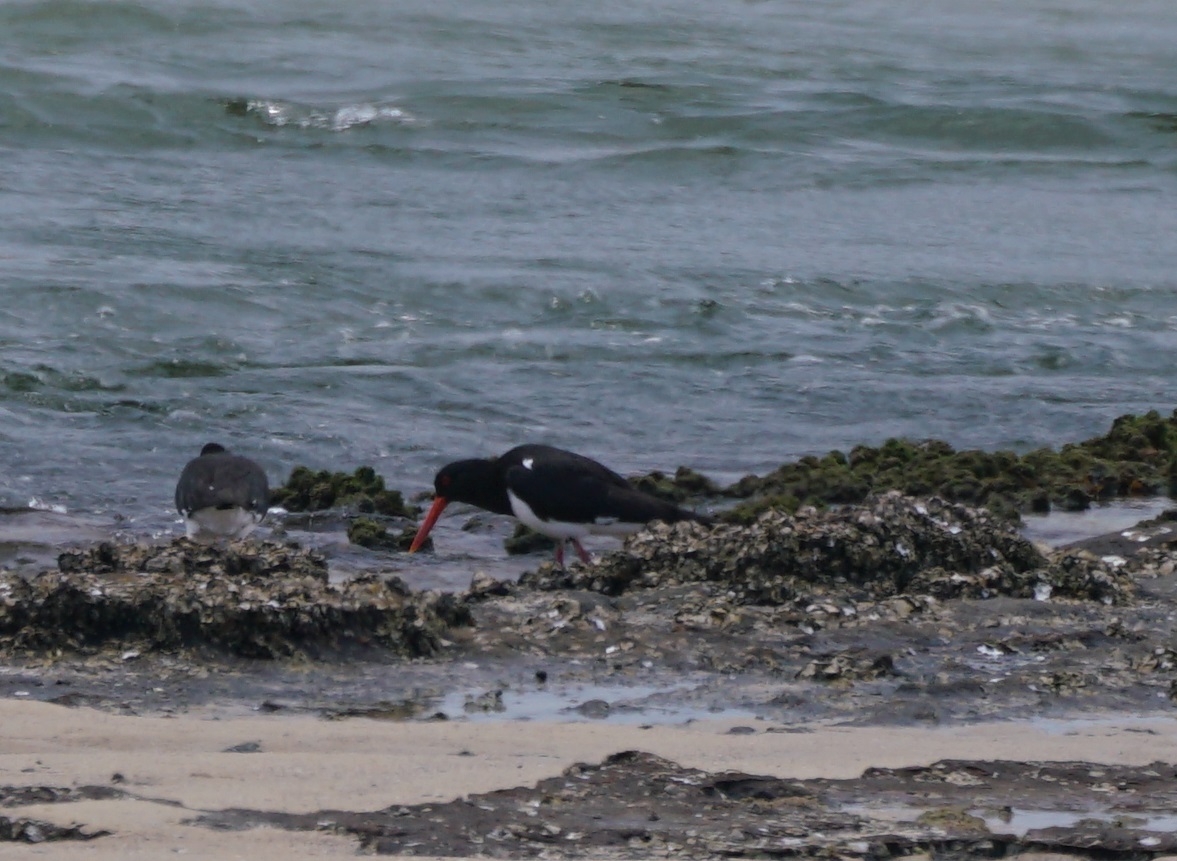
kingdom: Animalia
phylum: Chordata
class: Aves
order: Charadriiformes
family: Haematopodidae
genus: Haematopus
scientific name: Haematopus longirostris
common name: Pied oystercatcher
